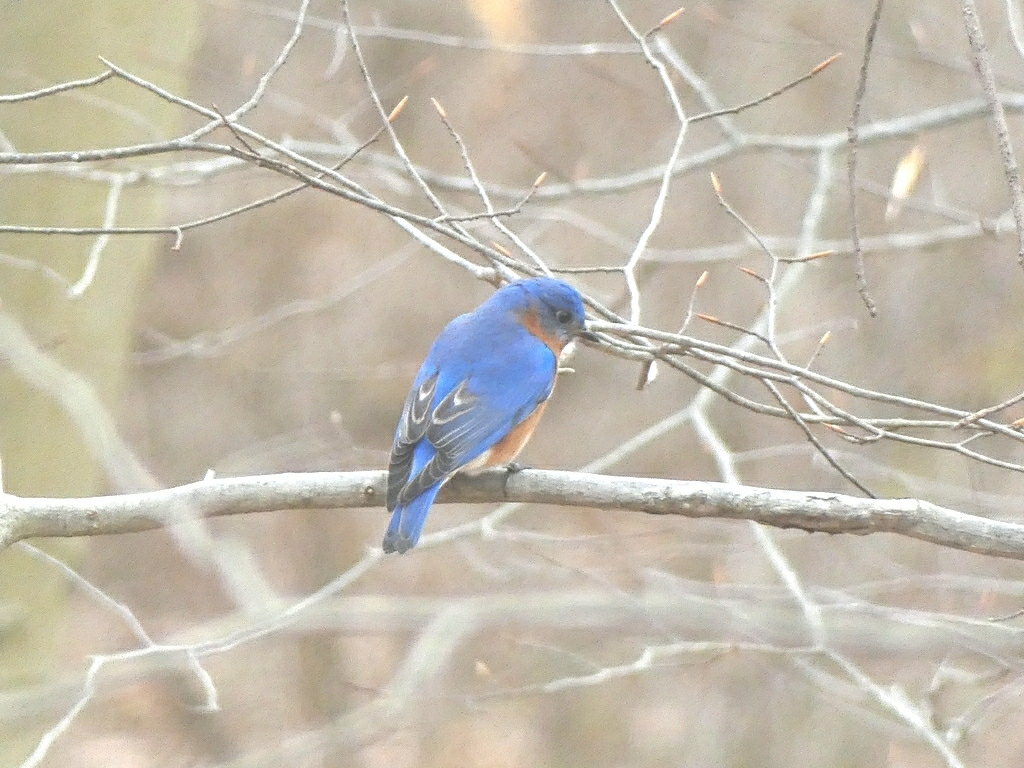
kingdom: Animalia
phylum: Chordata
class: Aves
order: Passeriformes
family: Turdidae
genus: Sialia
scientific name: Sialia sialis
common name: Eastern bluebird
